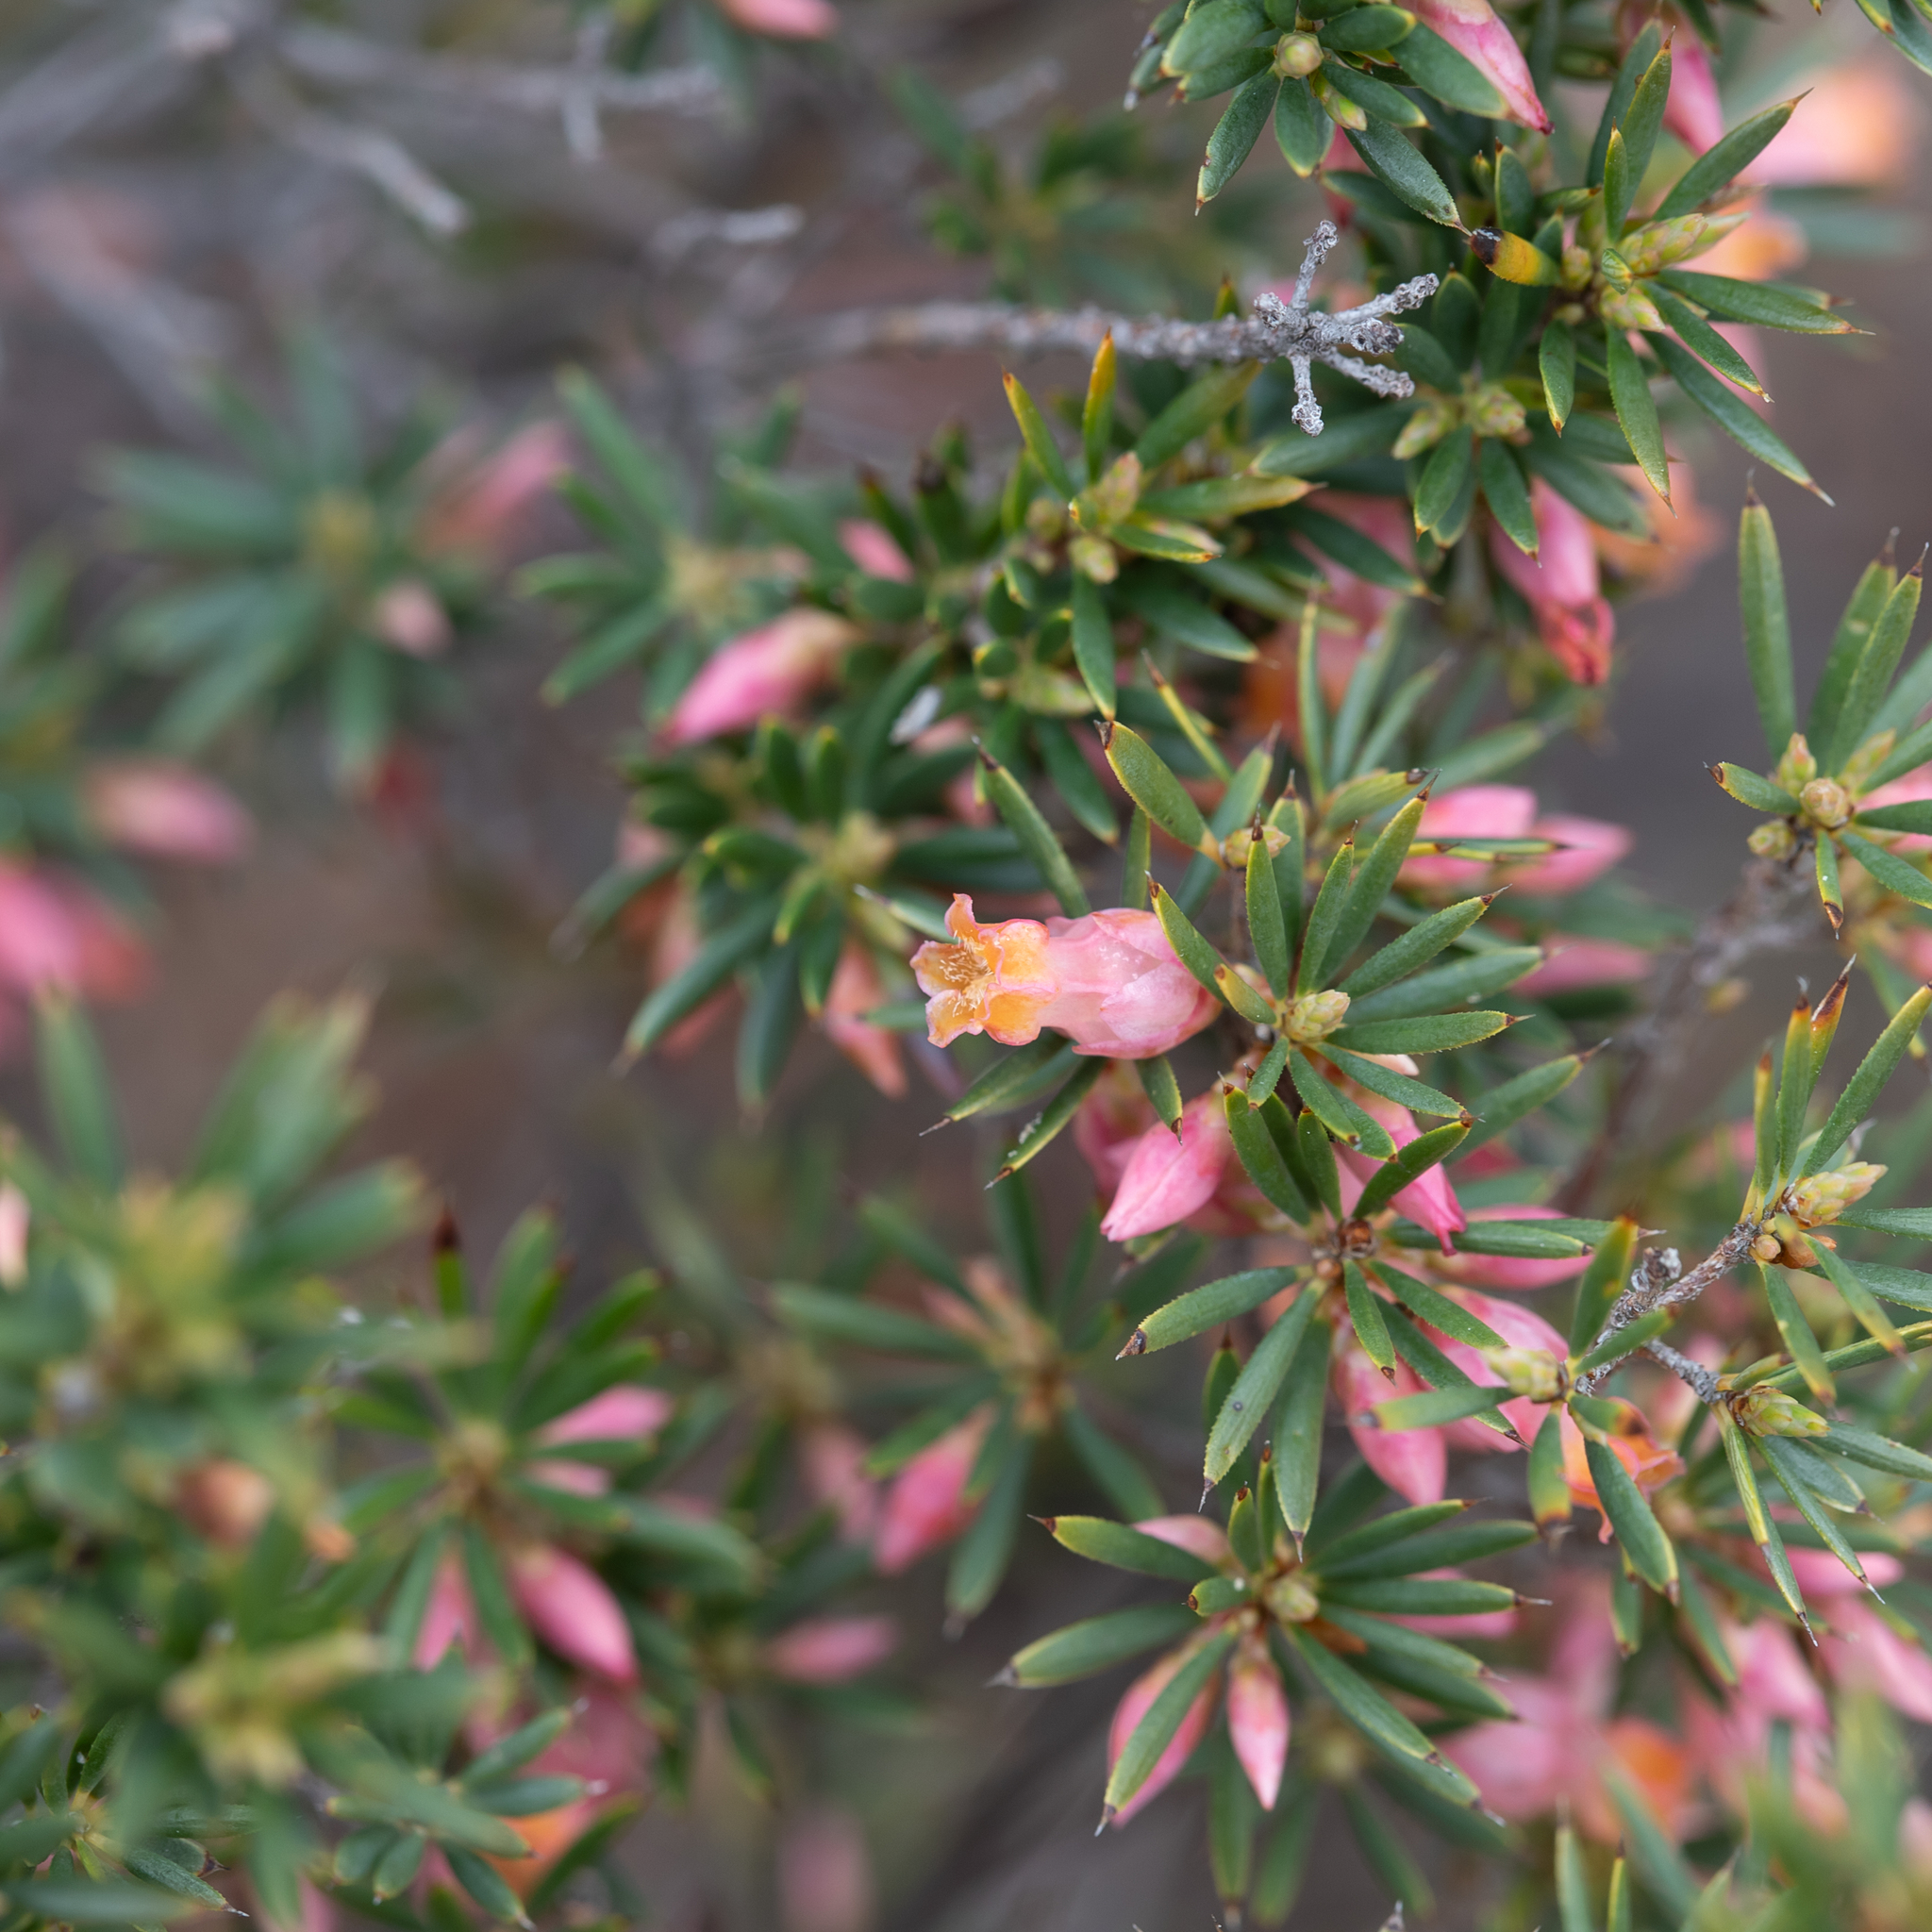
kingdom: Plantae
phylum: Tracheophyta
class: Magnoliopsida
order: Ericales
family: Ericaceae
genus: Brachyloma
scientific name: Brachyloma ericoides
